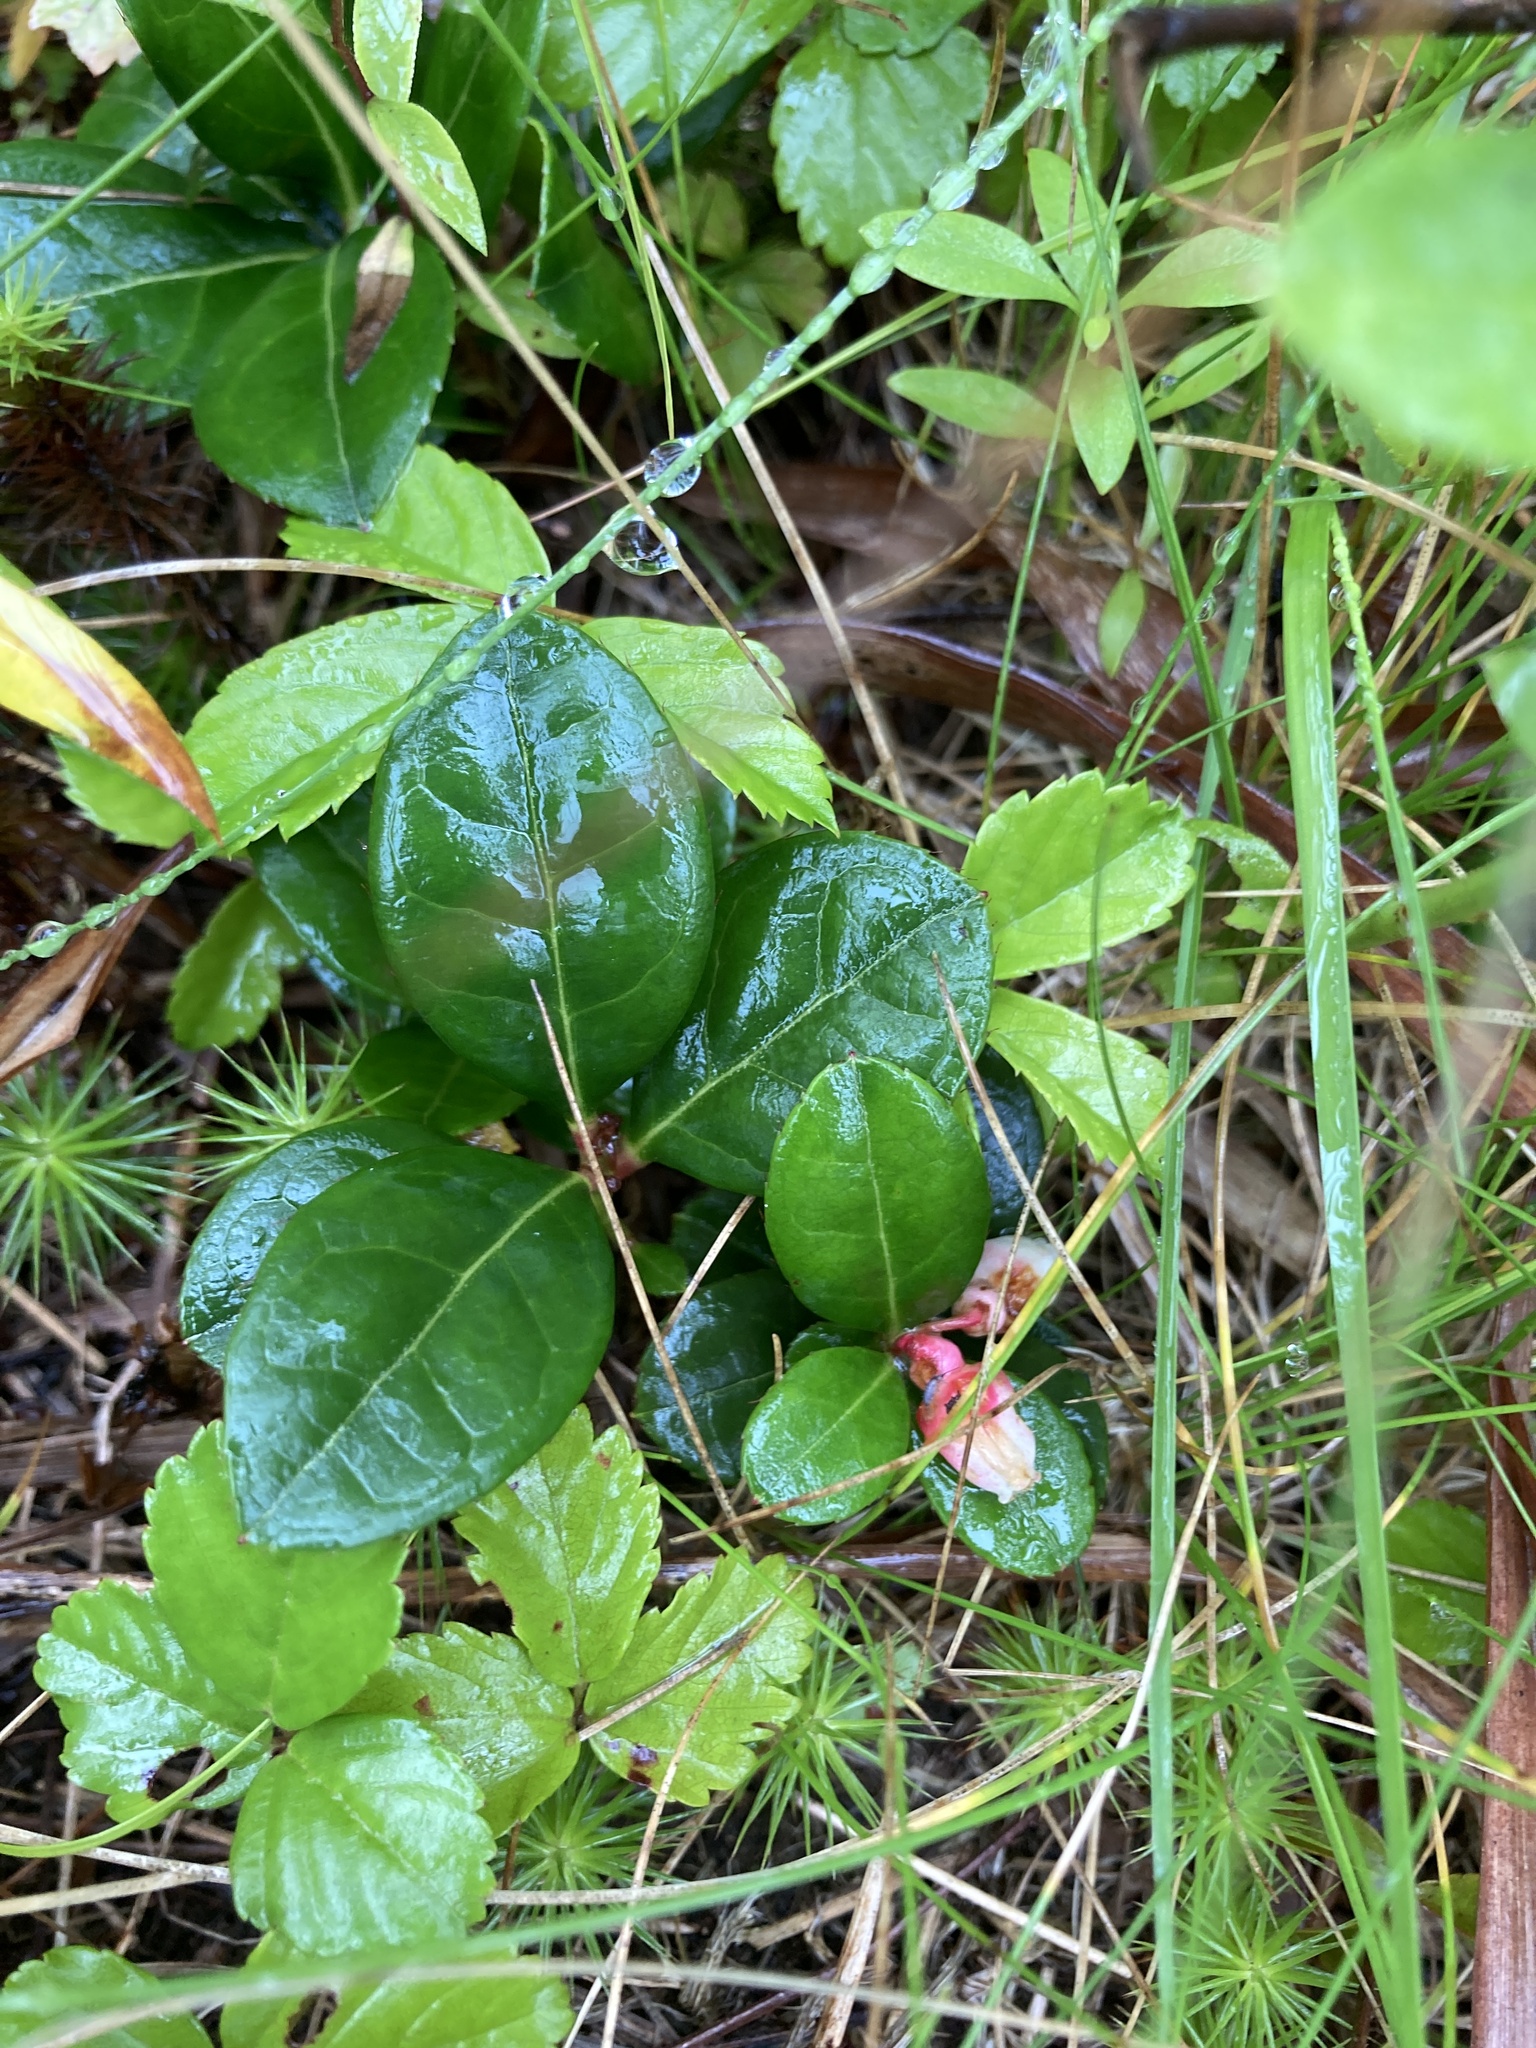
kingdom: Plantae
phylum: Tracheophyta
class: Magnoliopsida
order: Ericales
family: Ericaceae
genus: Gaultheria
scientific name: Gaultheria procumbens
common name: Checkerberry
